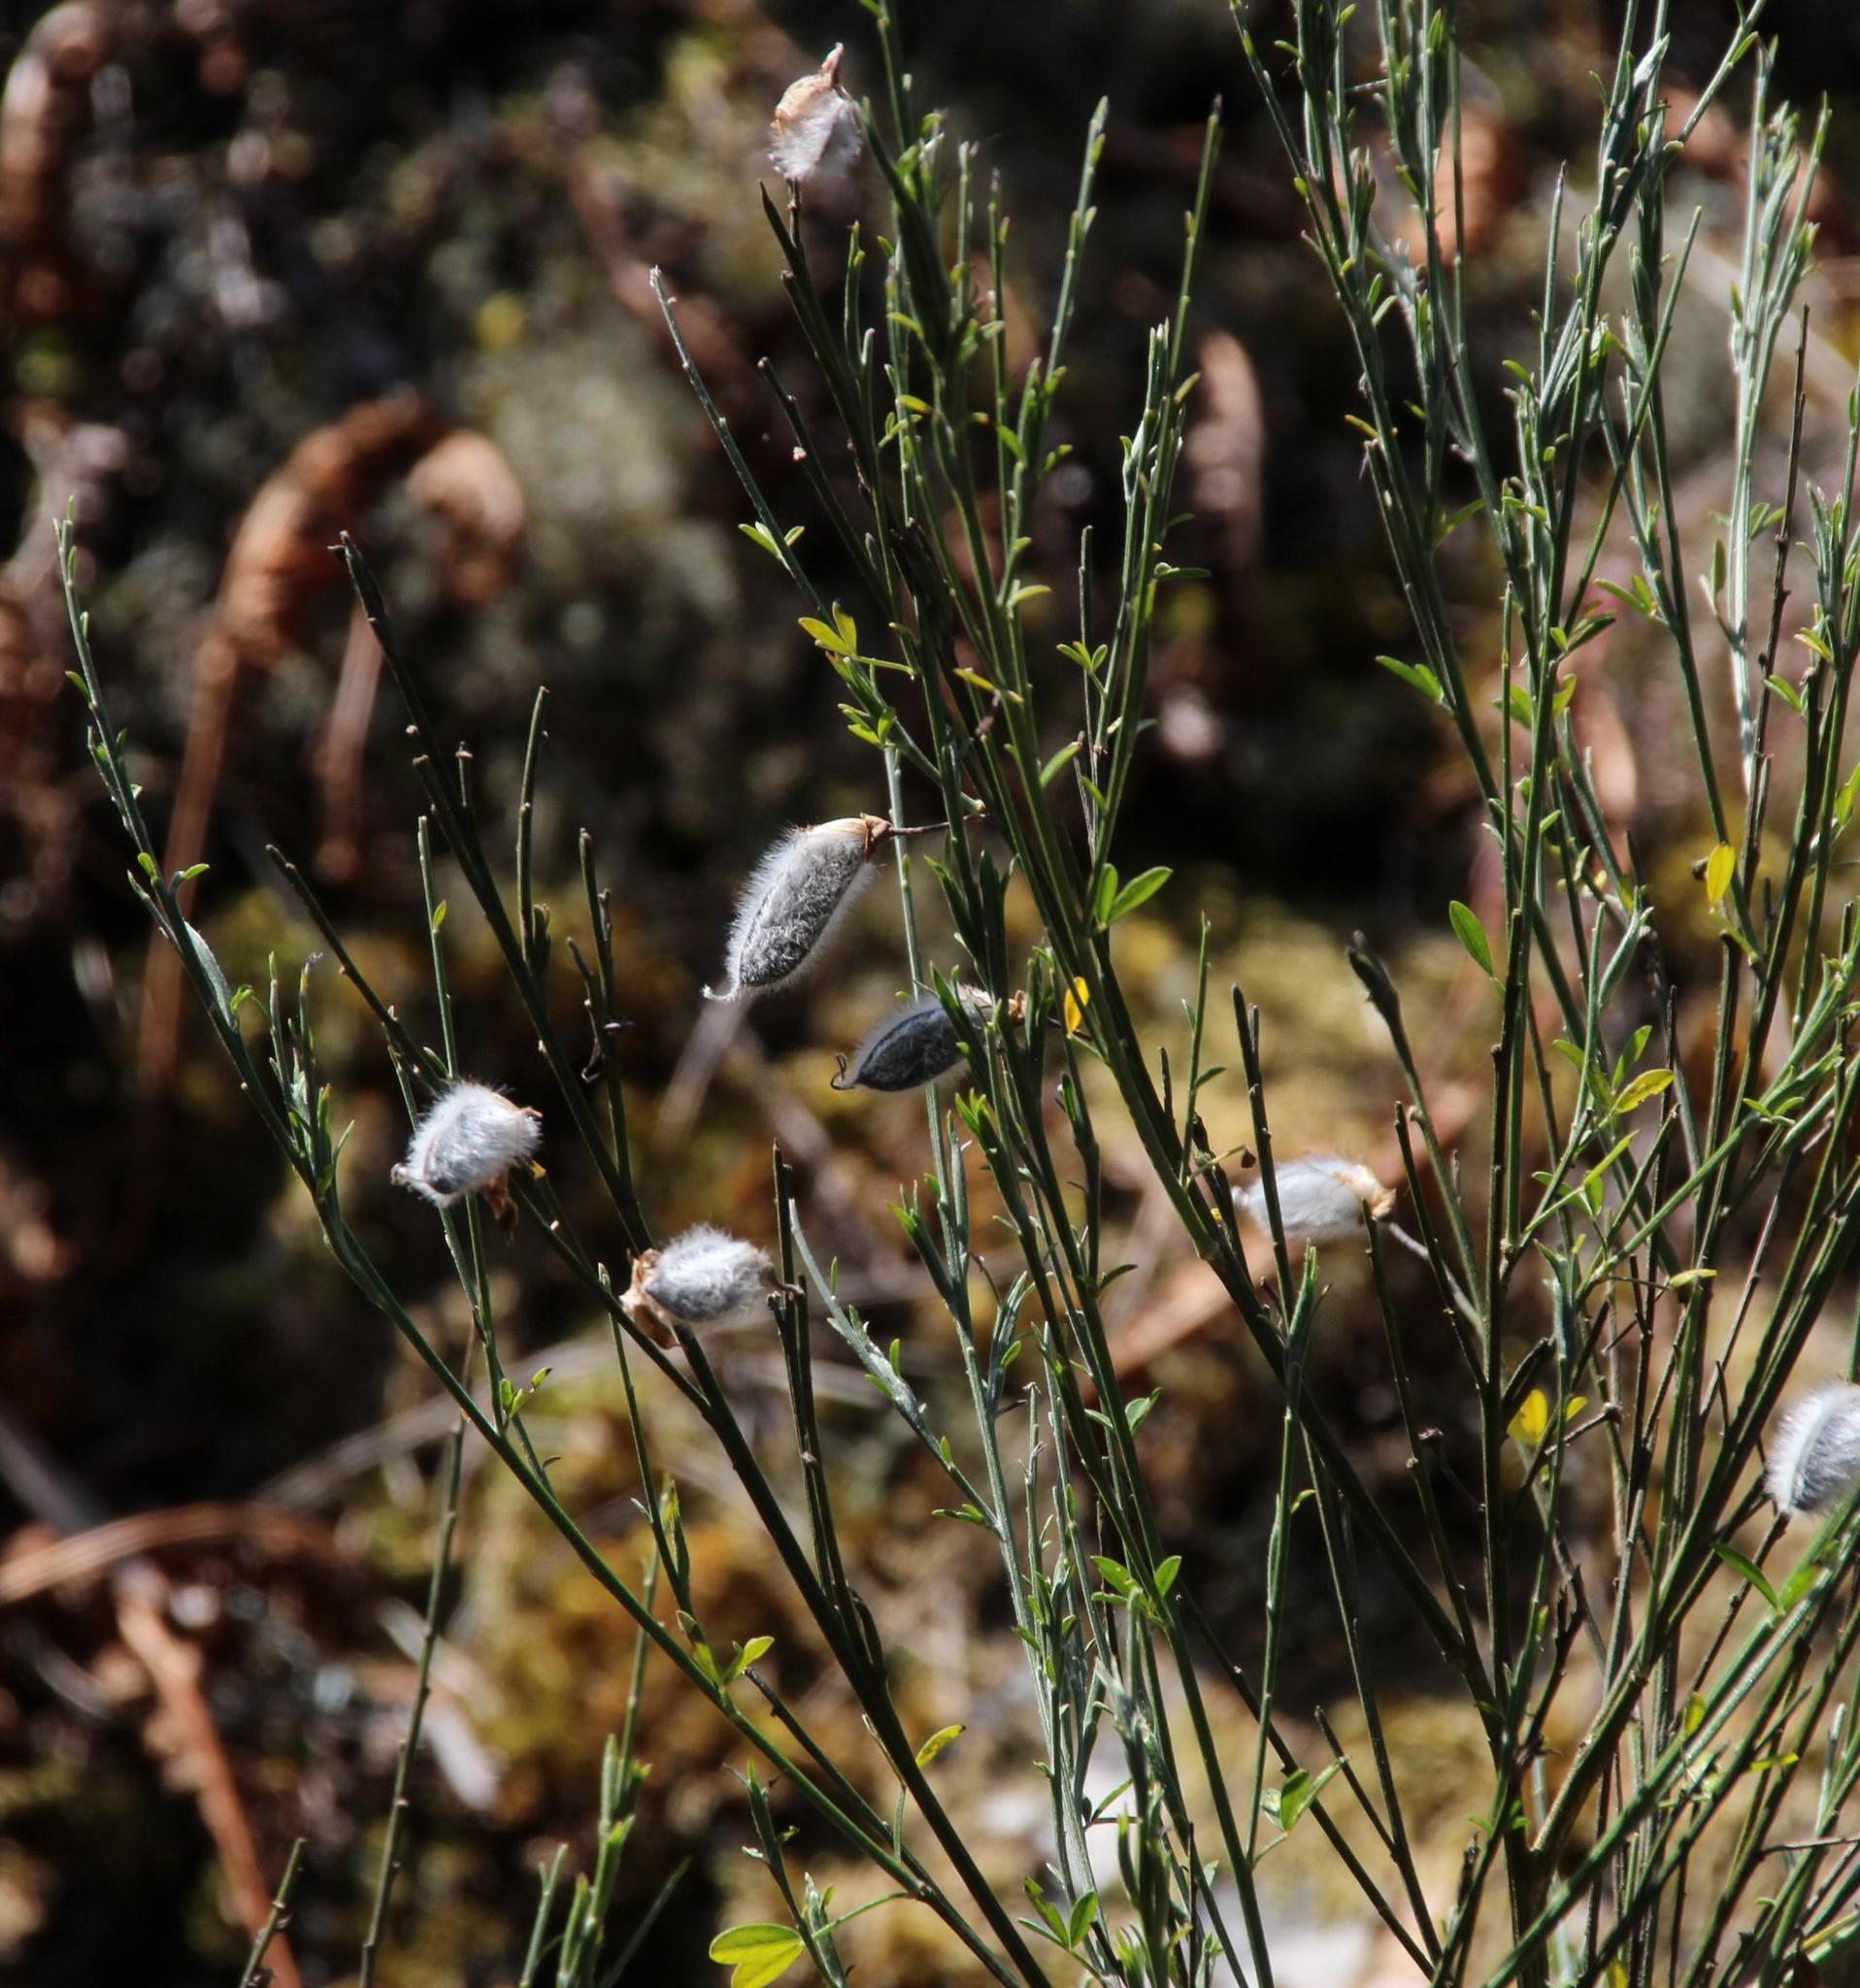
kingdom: Plantae
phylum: Tracheophyta
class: Magnoliopsida
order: Fabales
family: Fabaceae
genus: Cytisus
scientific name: Cytisus striatus
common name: Hairy-fruited broom
